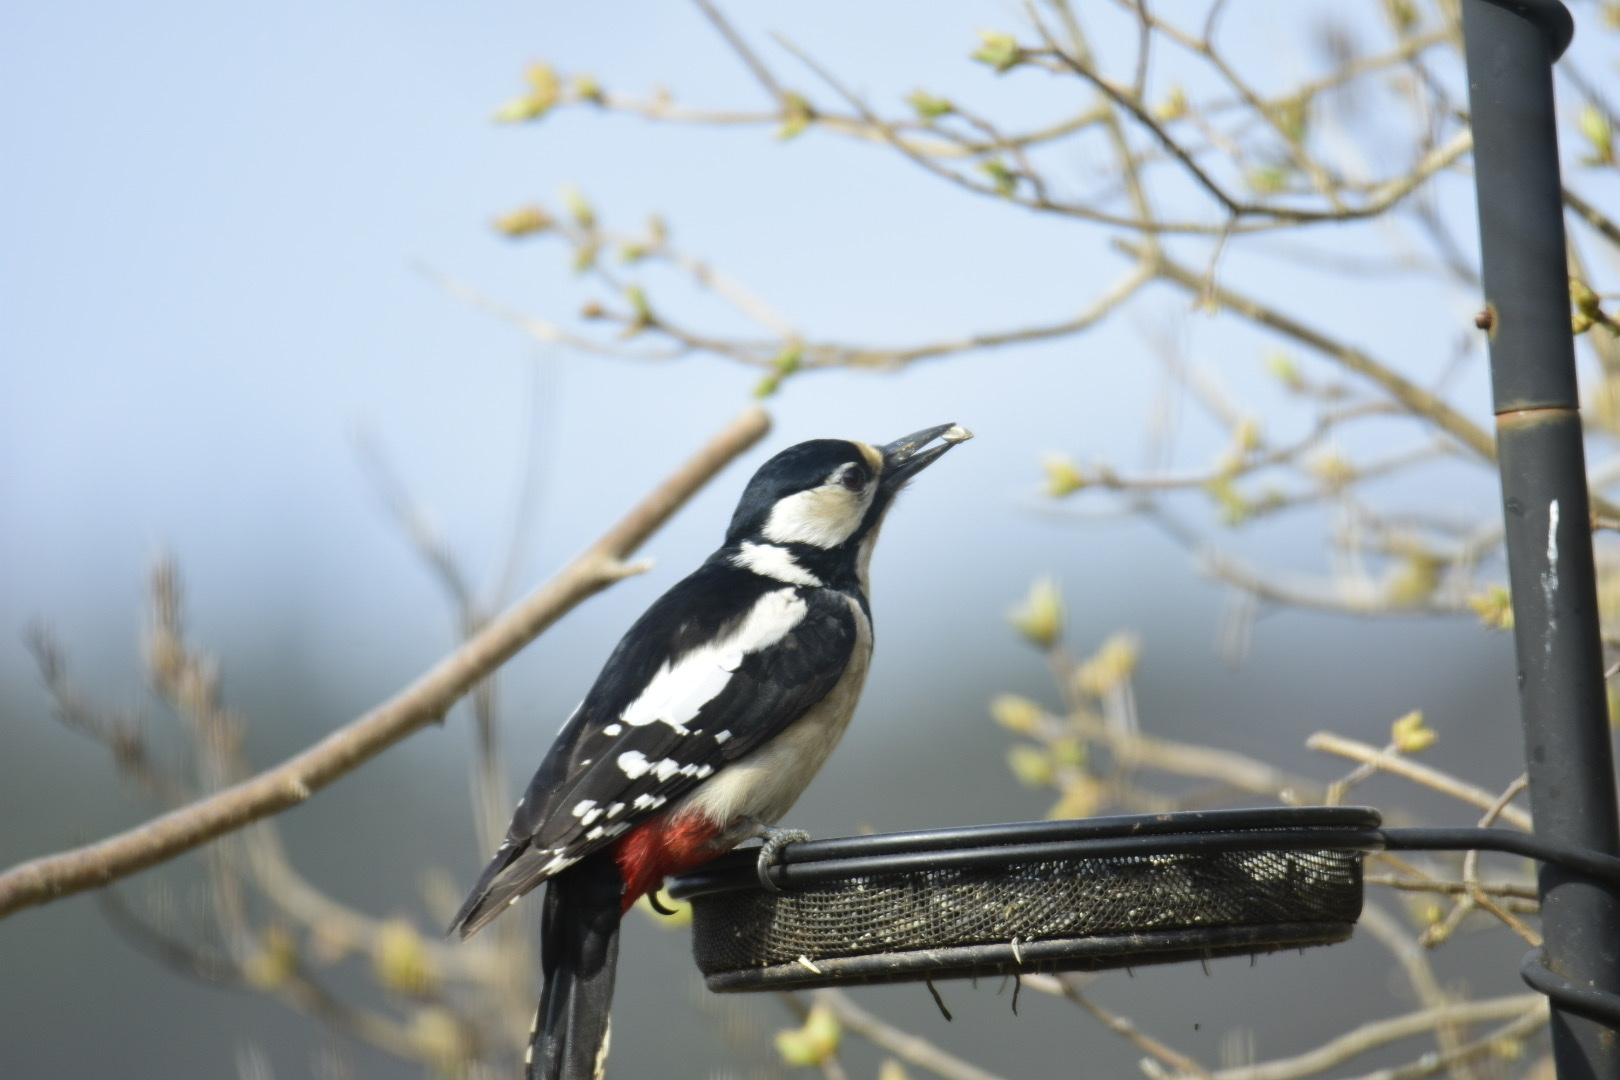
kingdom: Animalia
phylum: Chordata
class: Aves
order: Piciformes
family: Picidae
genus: Dendrocopos
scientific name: Dendrocopos major
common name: Great spotted woodpecker
